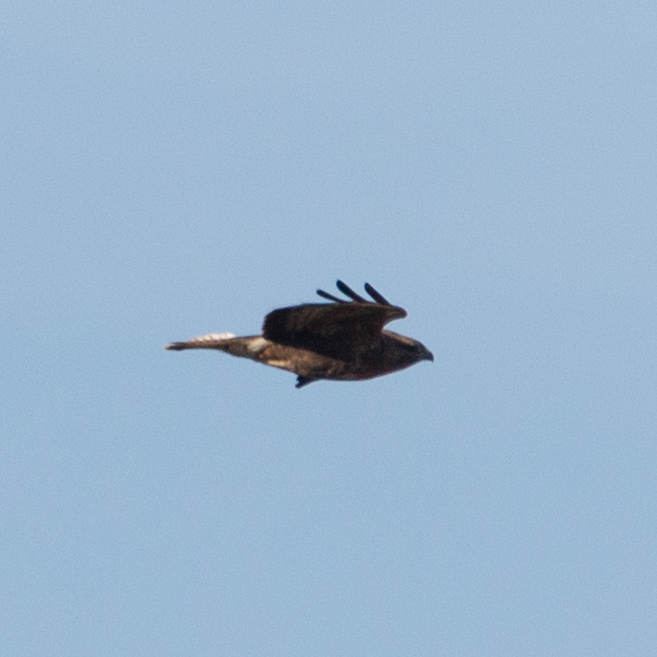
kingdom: Animalia
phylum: Chordata
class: Aves
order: Accipitriformes
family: Accipitridae
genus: Buteo
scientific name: Buteo buteo
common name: Common buzzard
